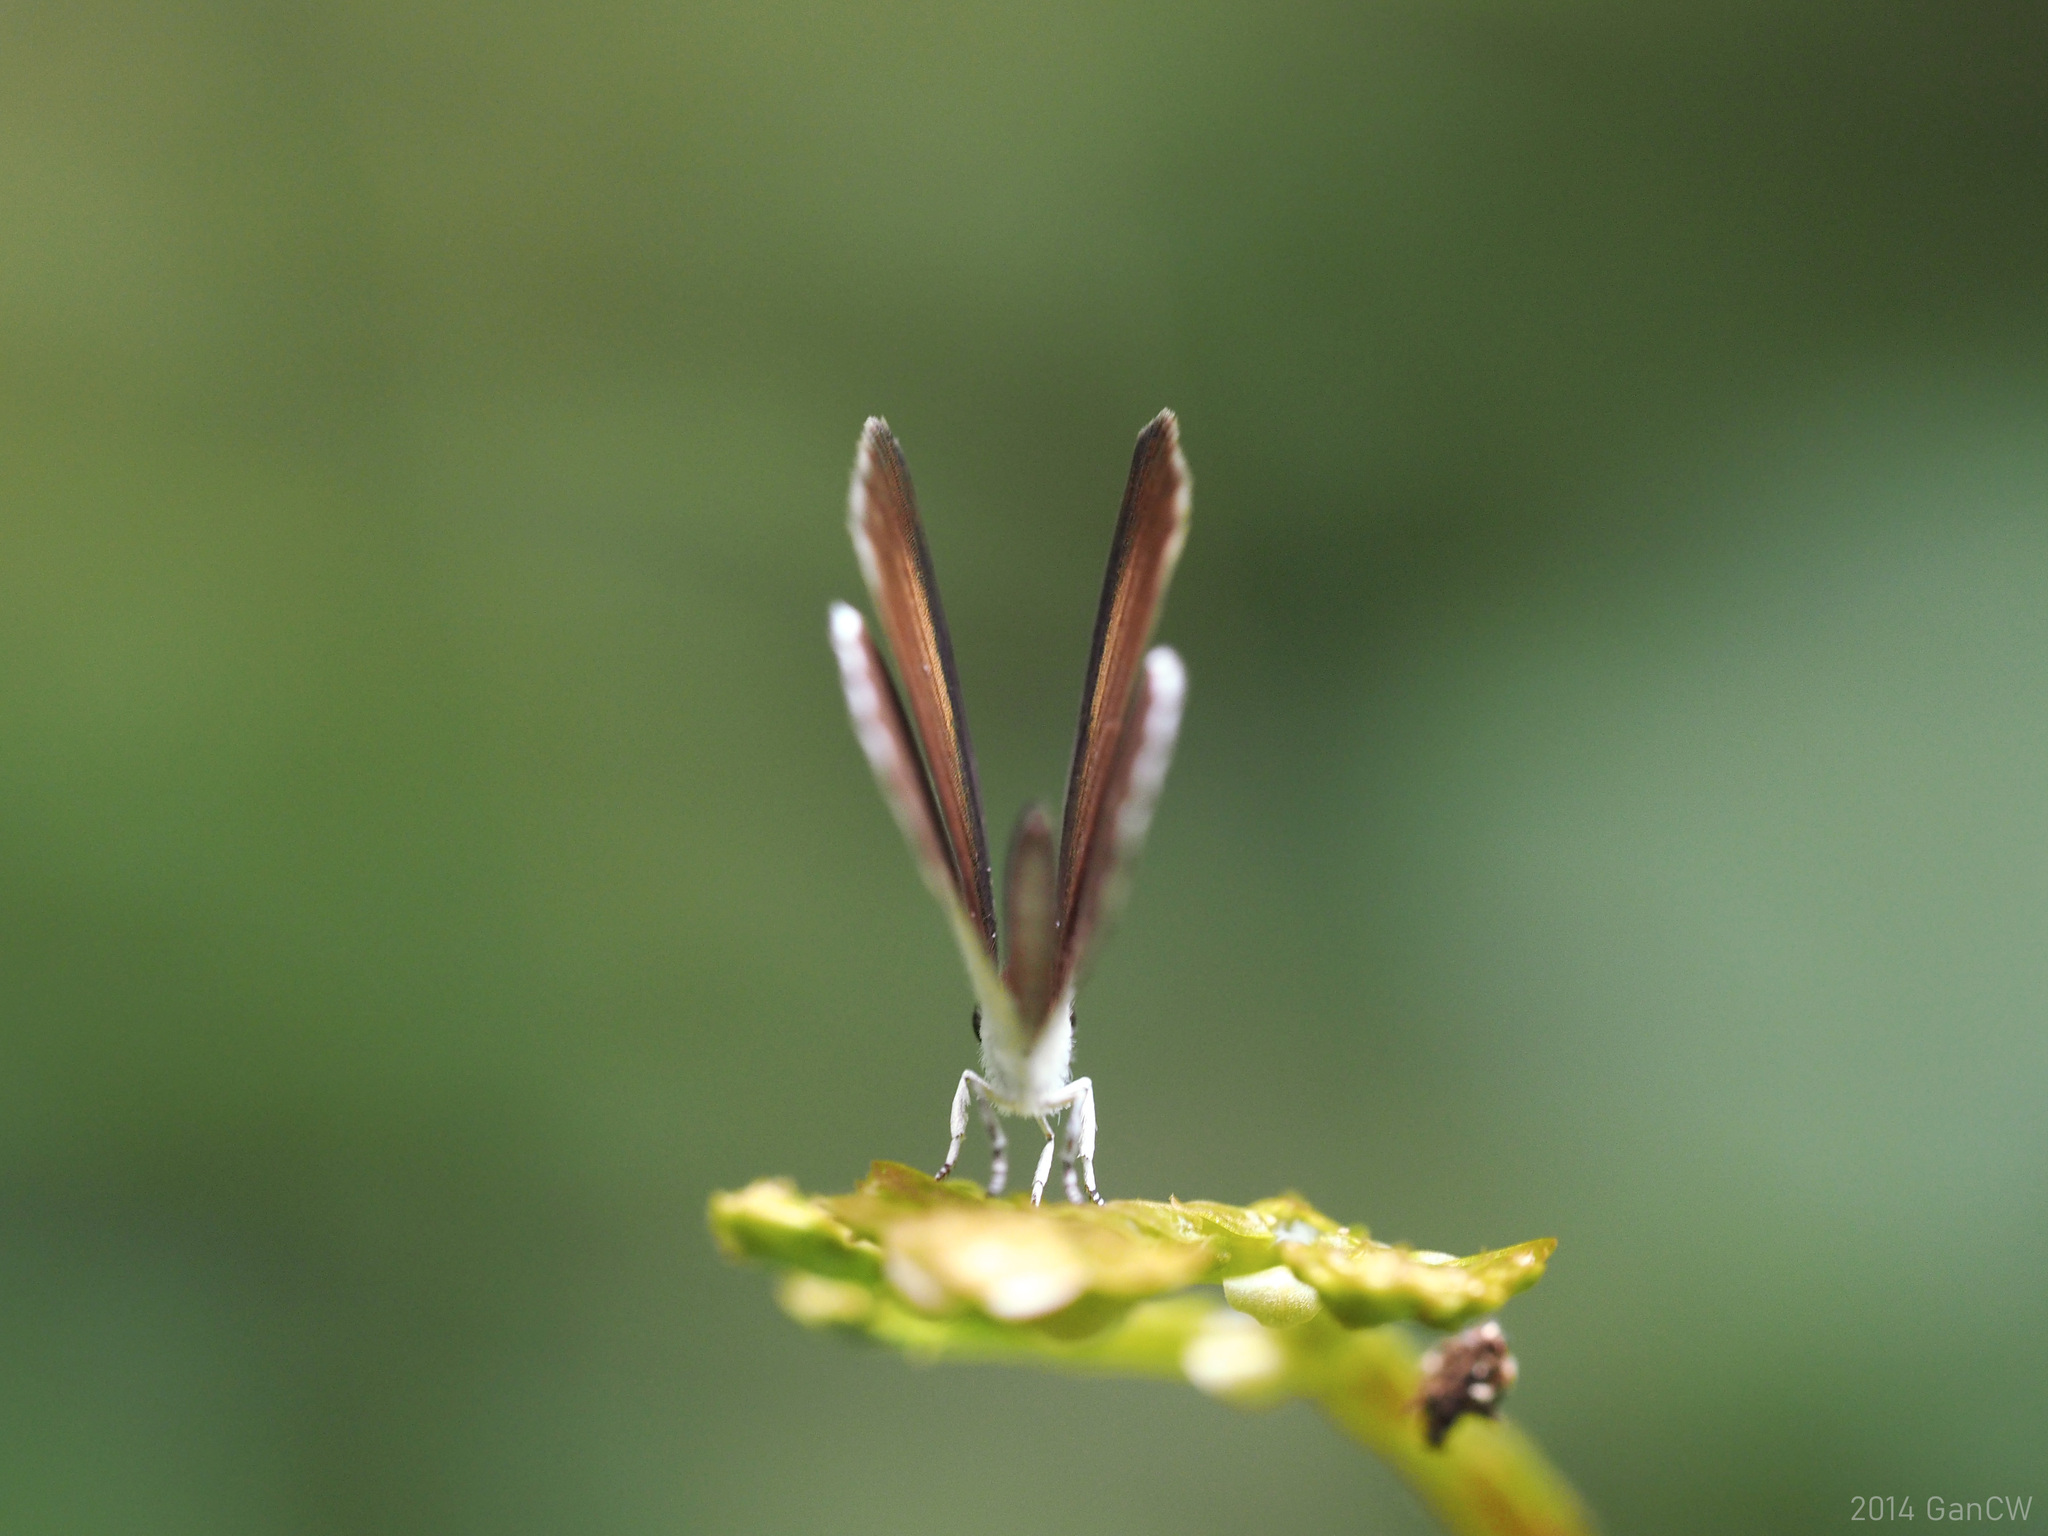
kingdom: Animalia
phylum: Arthropoda
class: Insecta
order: Lepidoptera
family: Lycaenidae
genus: Pithecops
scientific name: Pithecops corvus
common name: Forest quaker
